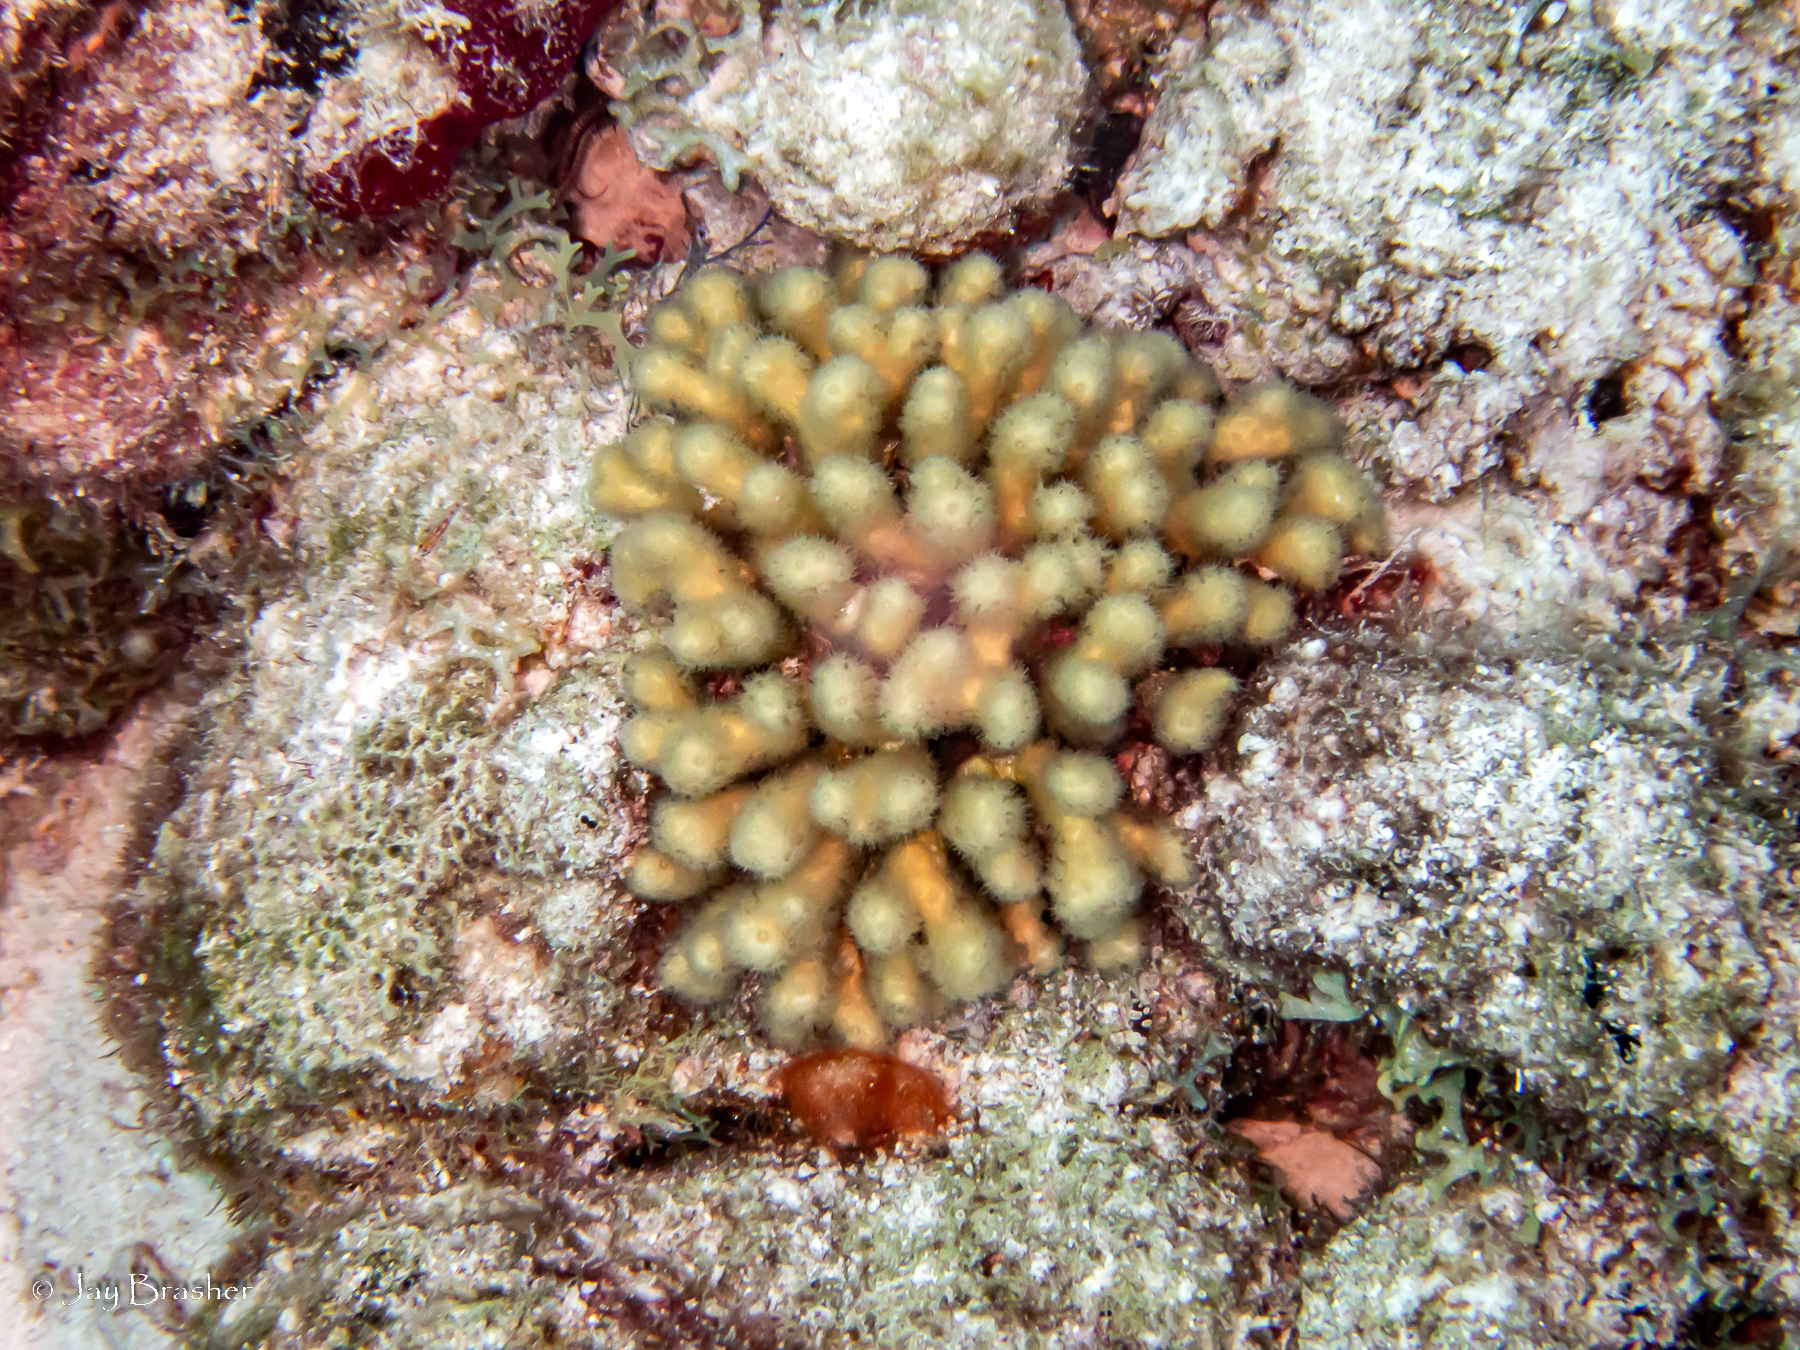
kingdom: Animalia
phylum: Cnidaria
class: Anthozoa
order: Scleractinia
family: Pocilloporidae
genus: Madracis
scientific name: Madracis auretenra
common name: Yellow pencil coral
